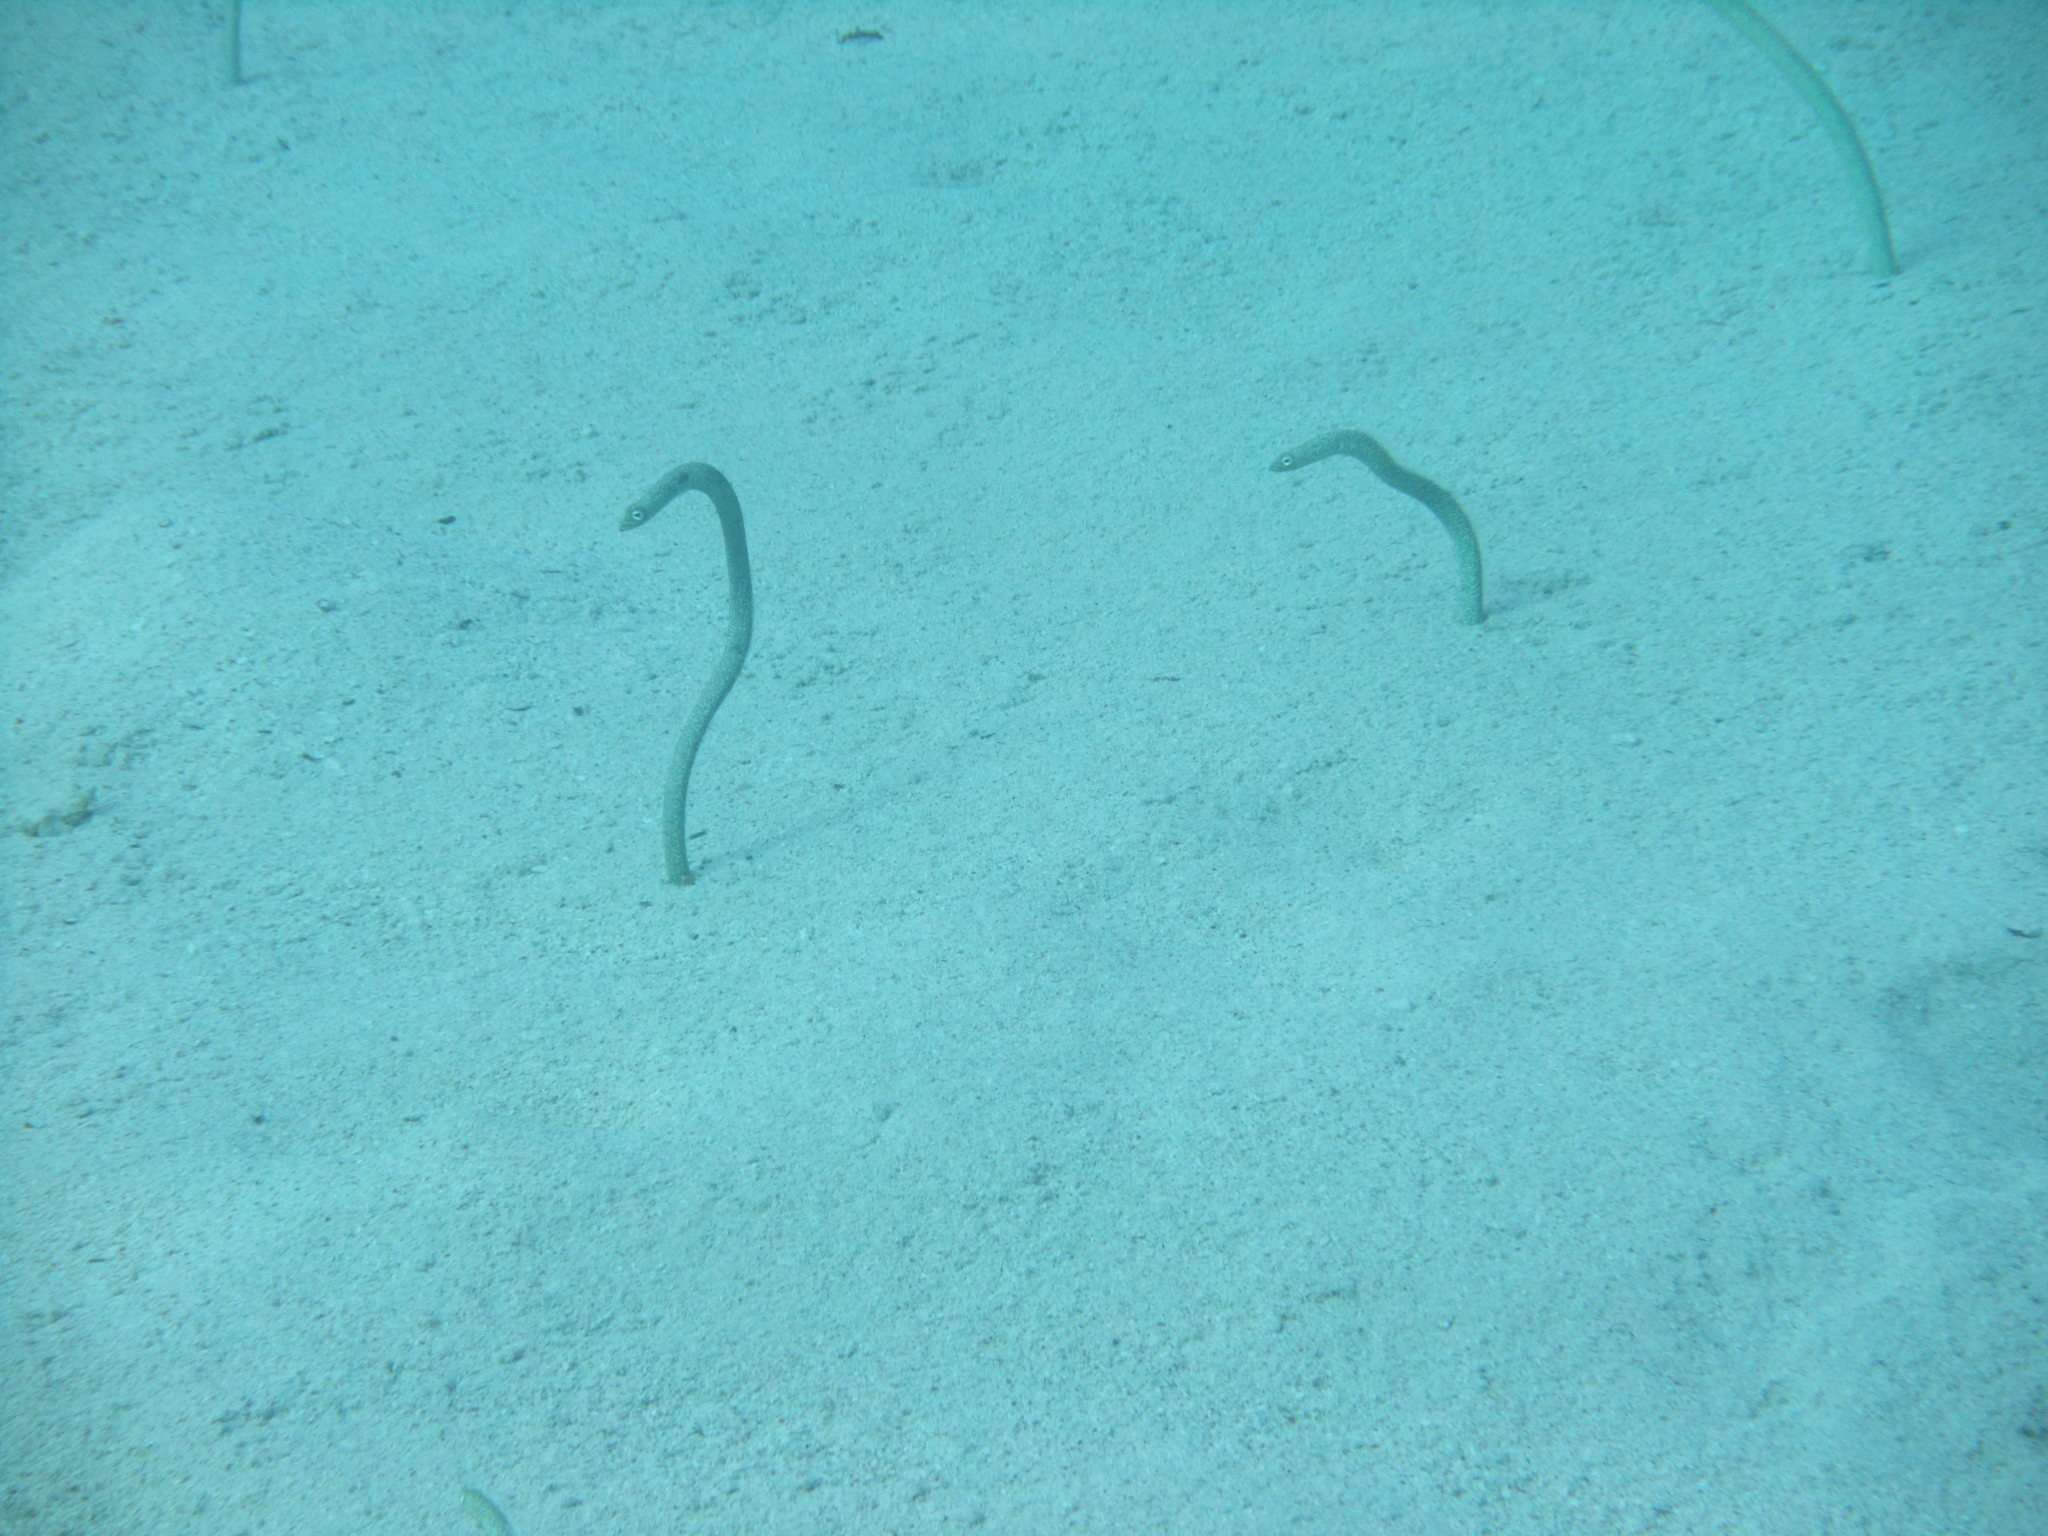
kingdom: Animalia
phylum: Chordata
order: Anguilliformes
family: Congridae
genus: Gorgasia
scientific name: Gorgasia sillneri
